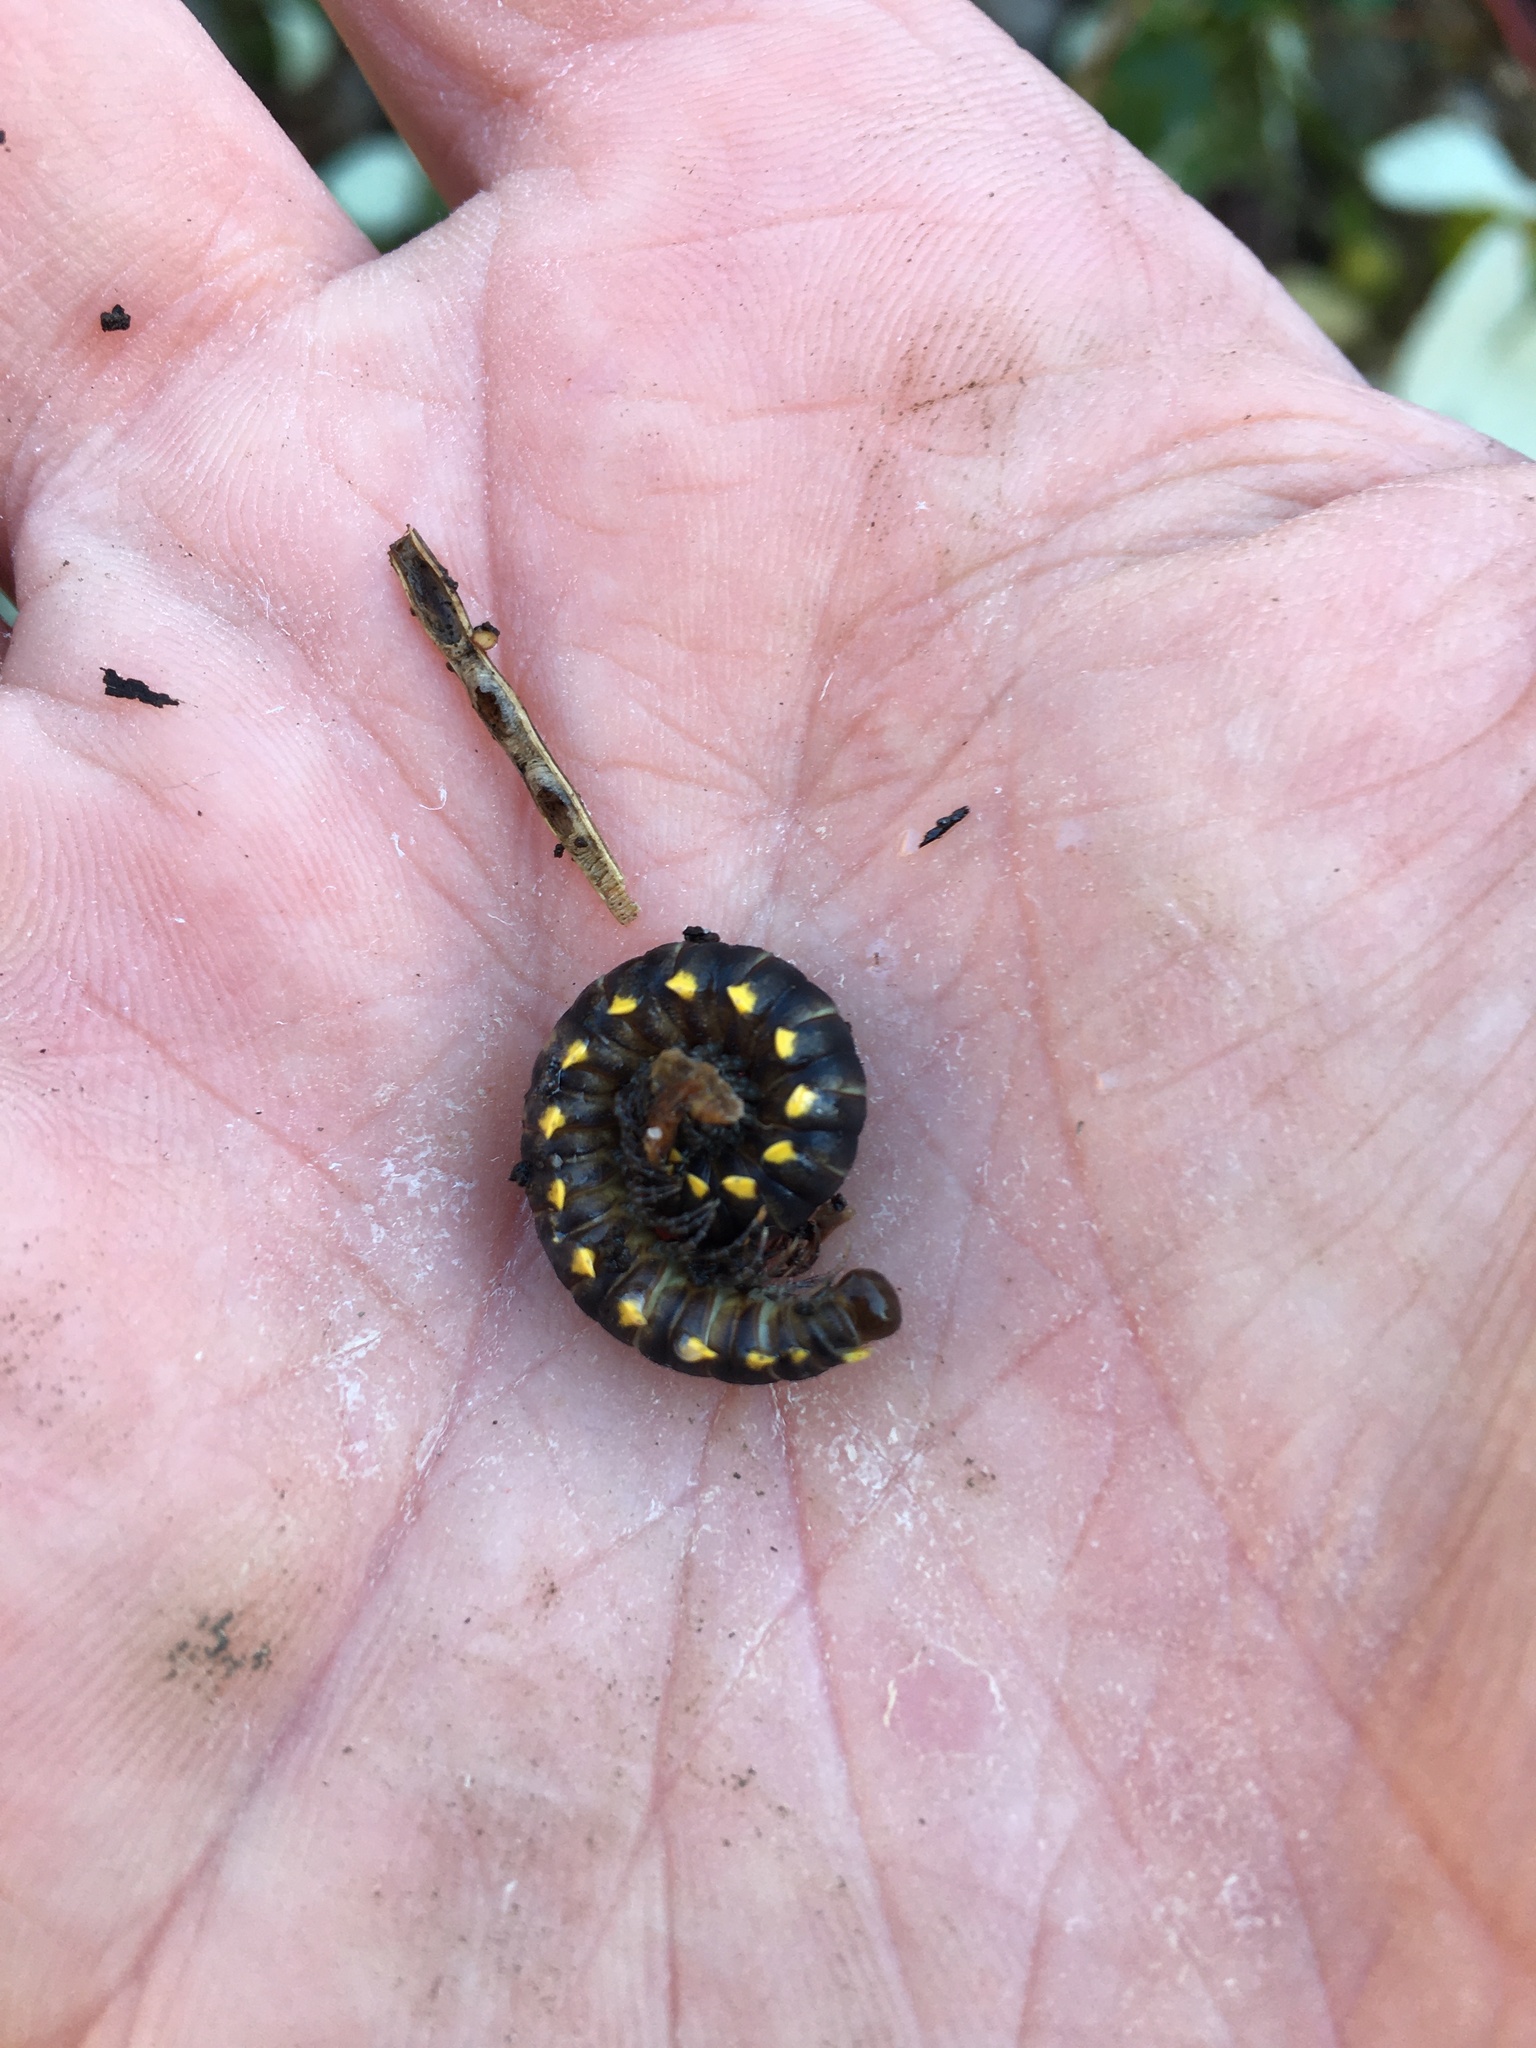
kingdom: Animalia
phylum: Arthropoda
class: Diplopoda
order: Polydesmida
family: Xystodesmidae
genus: Harpaphe
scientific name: Harpaphe haydeniana
